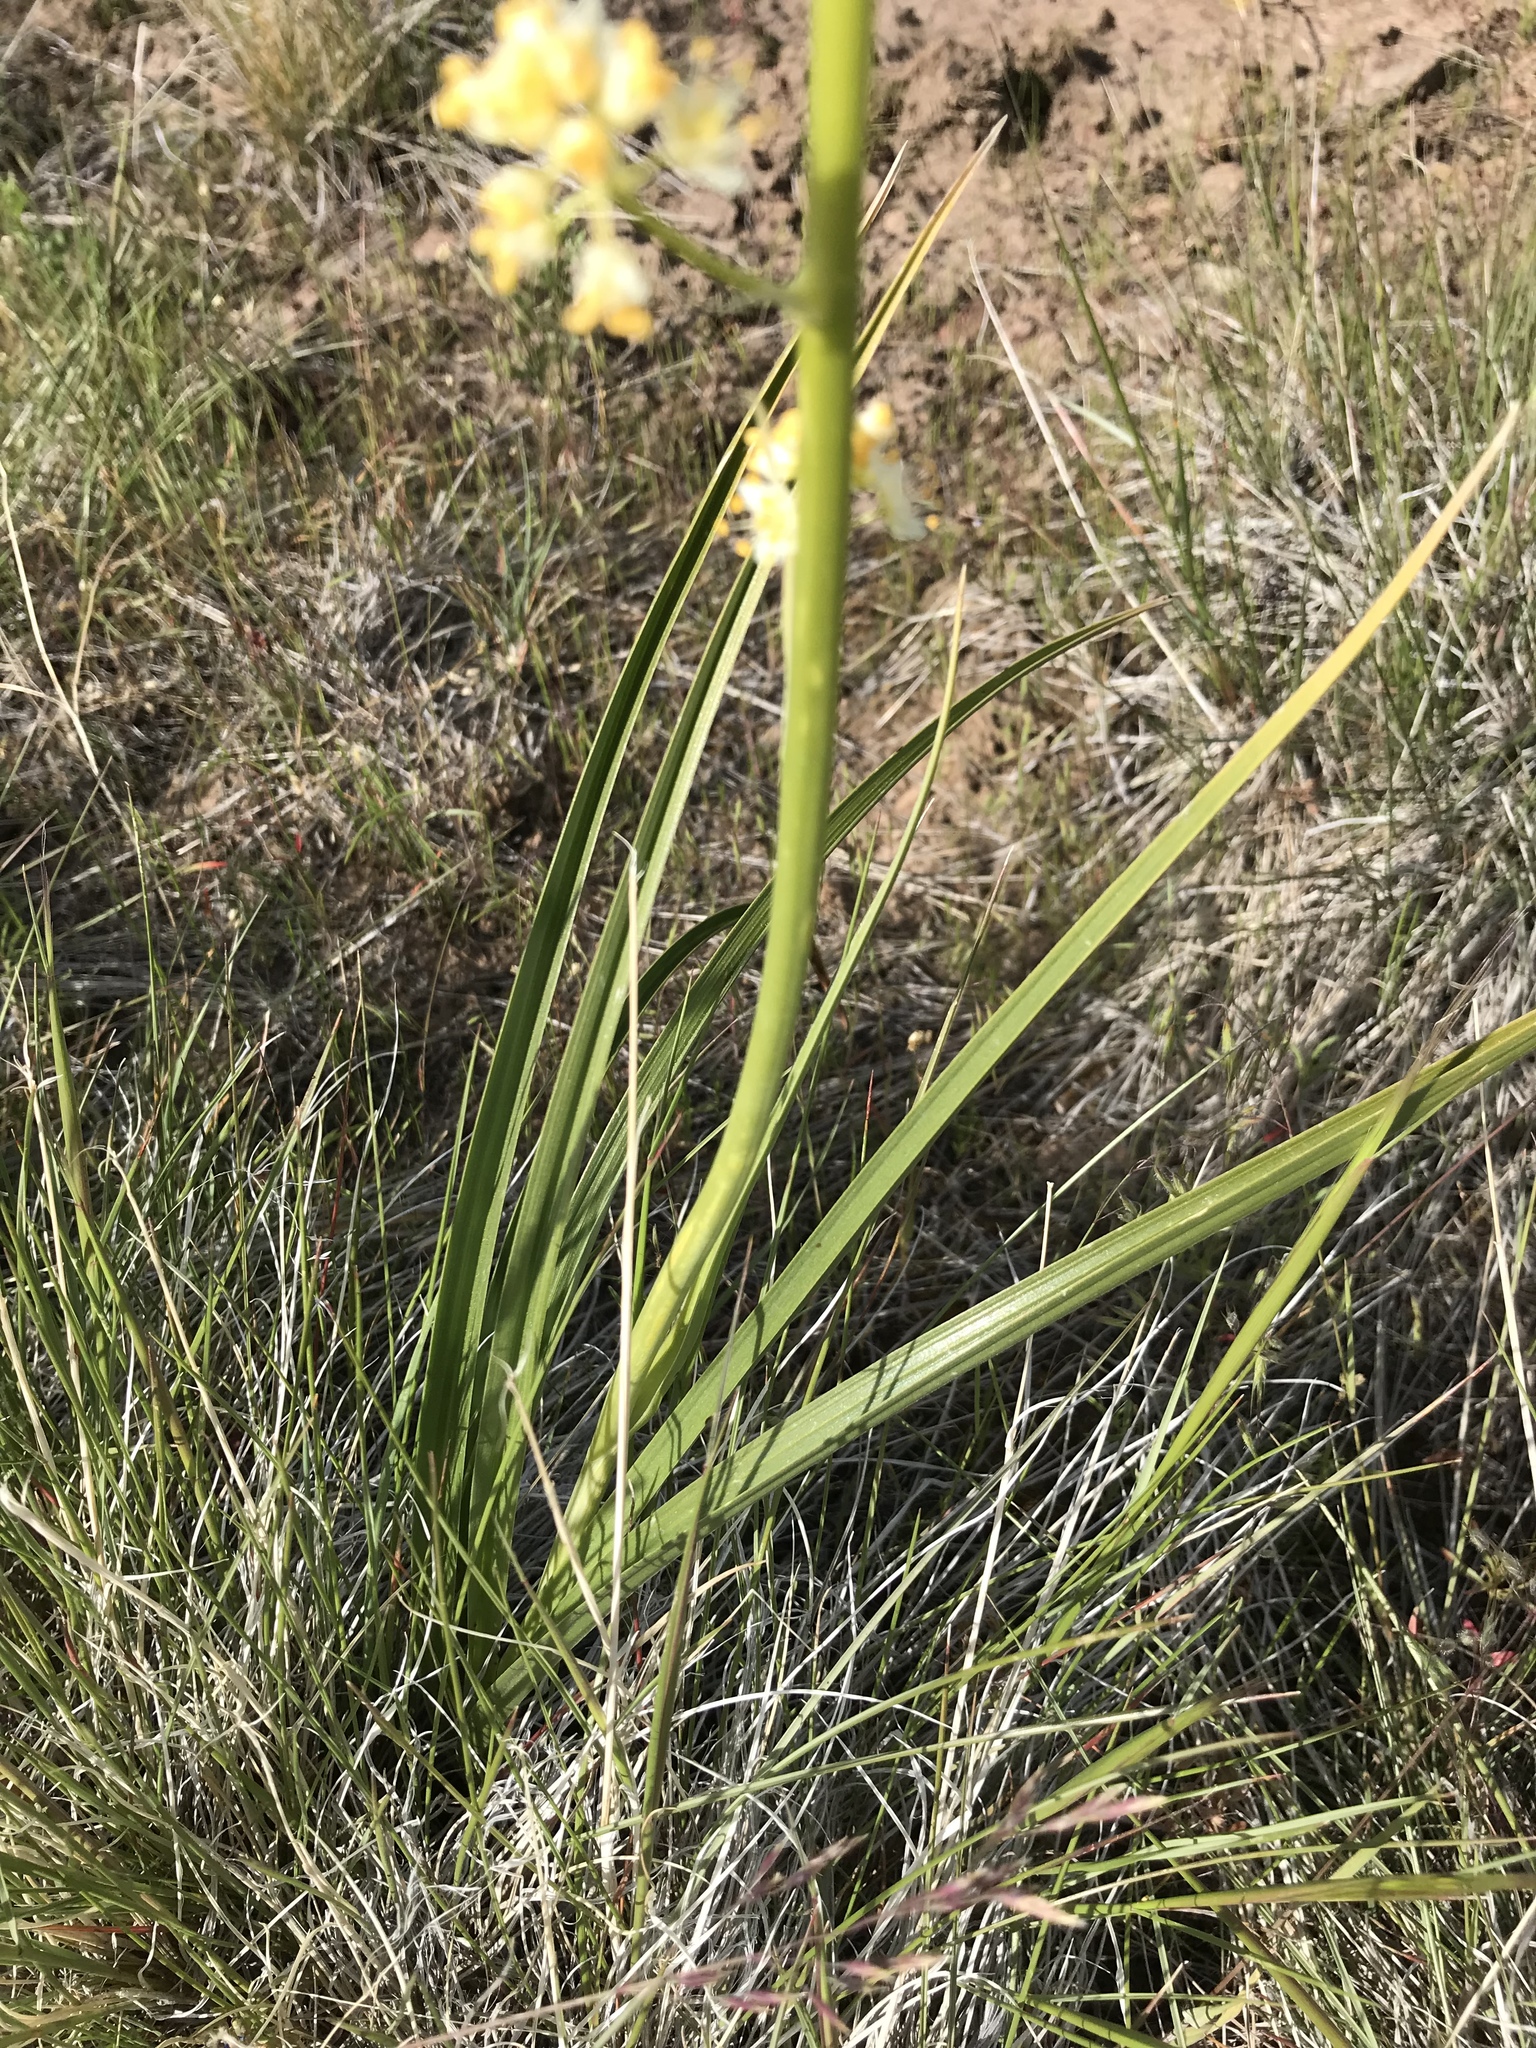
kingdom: Plantae
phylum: Tracheophyta
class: Liliopsida
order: Liliales
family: Melanthiaceae
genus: Toxicoscordion
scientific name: Toxicoscordion paniculatum
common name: Foothill death camas
